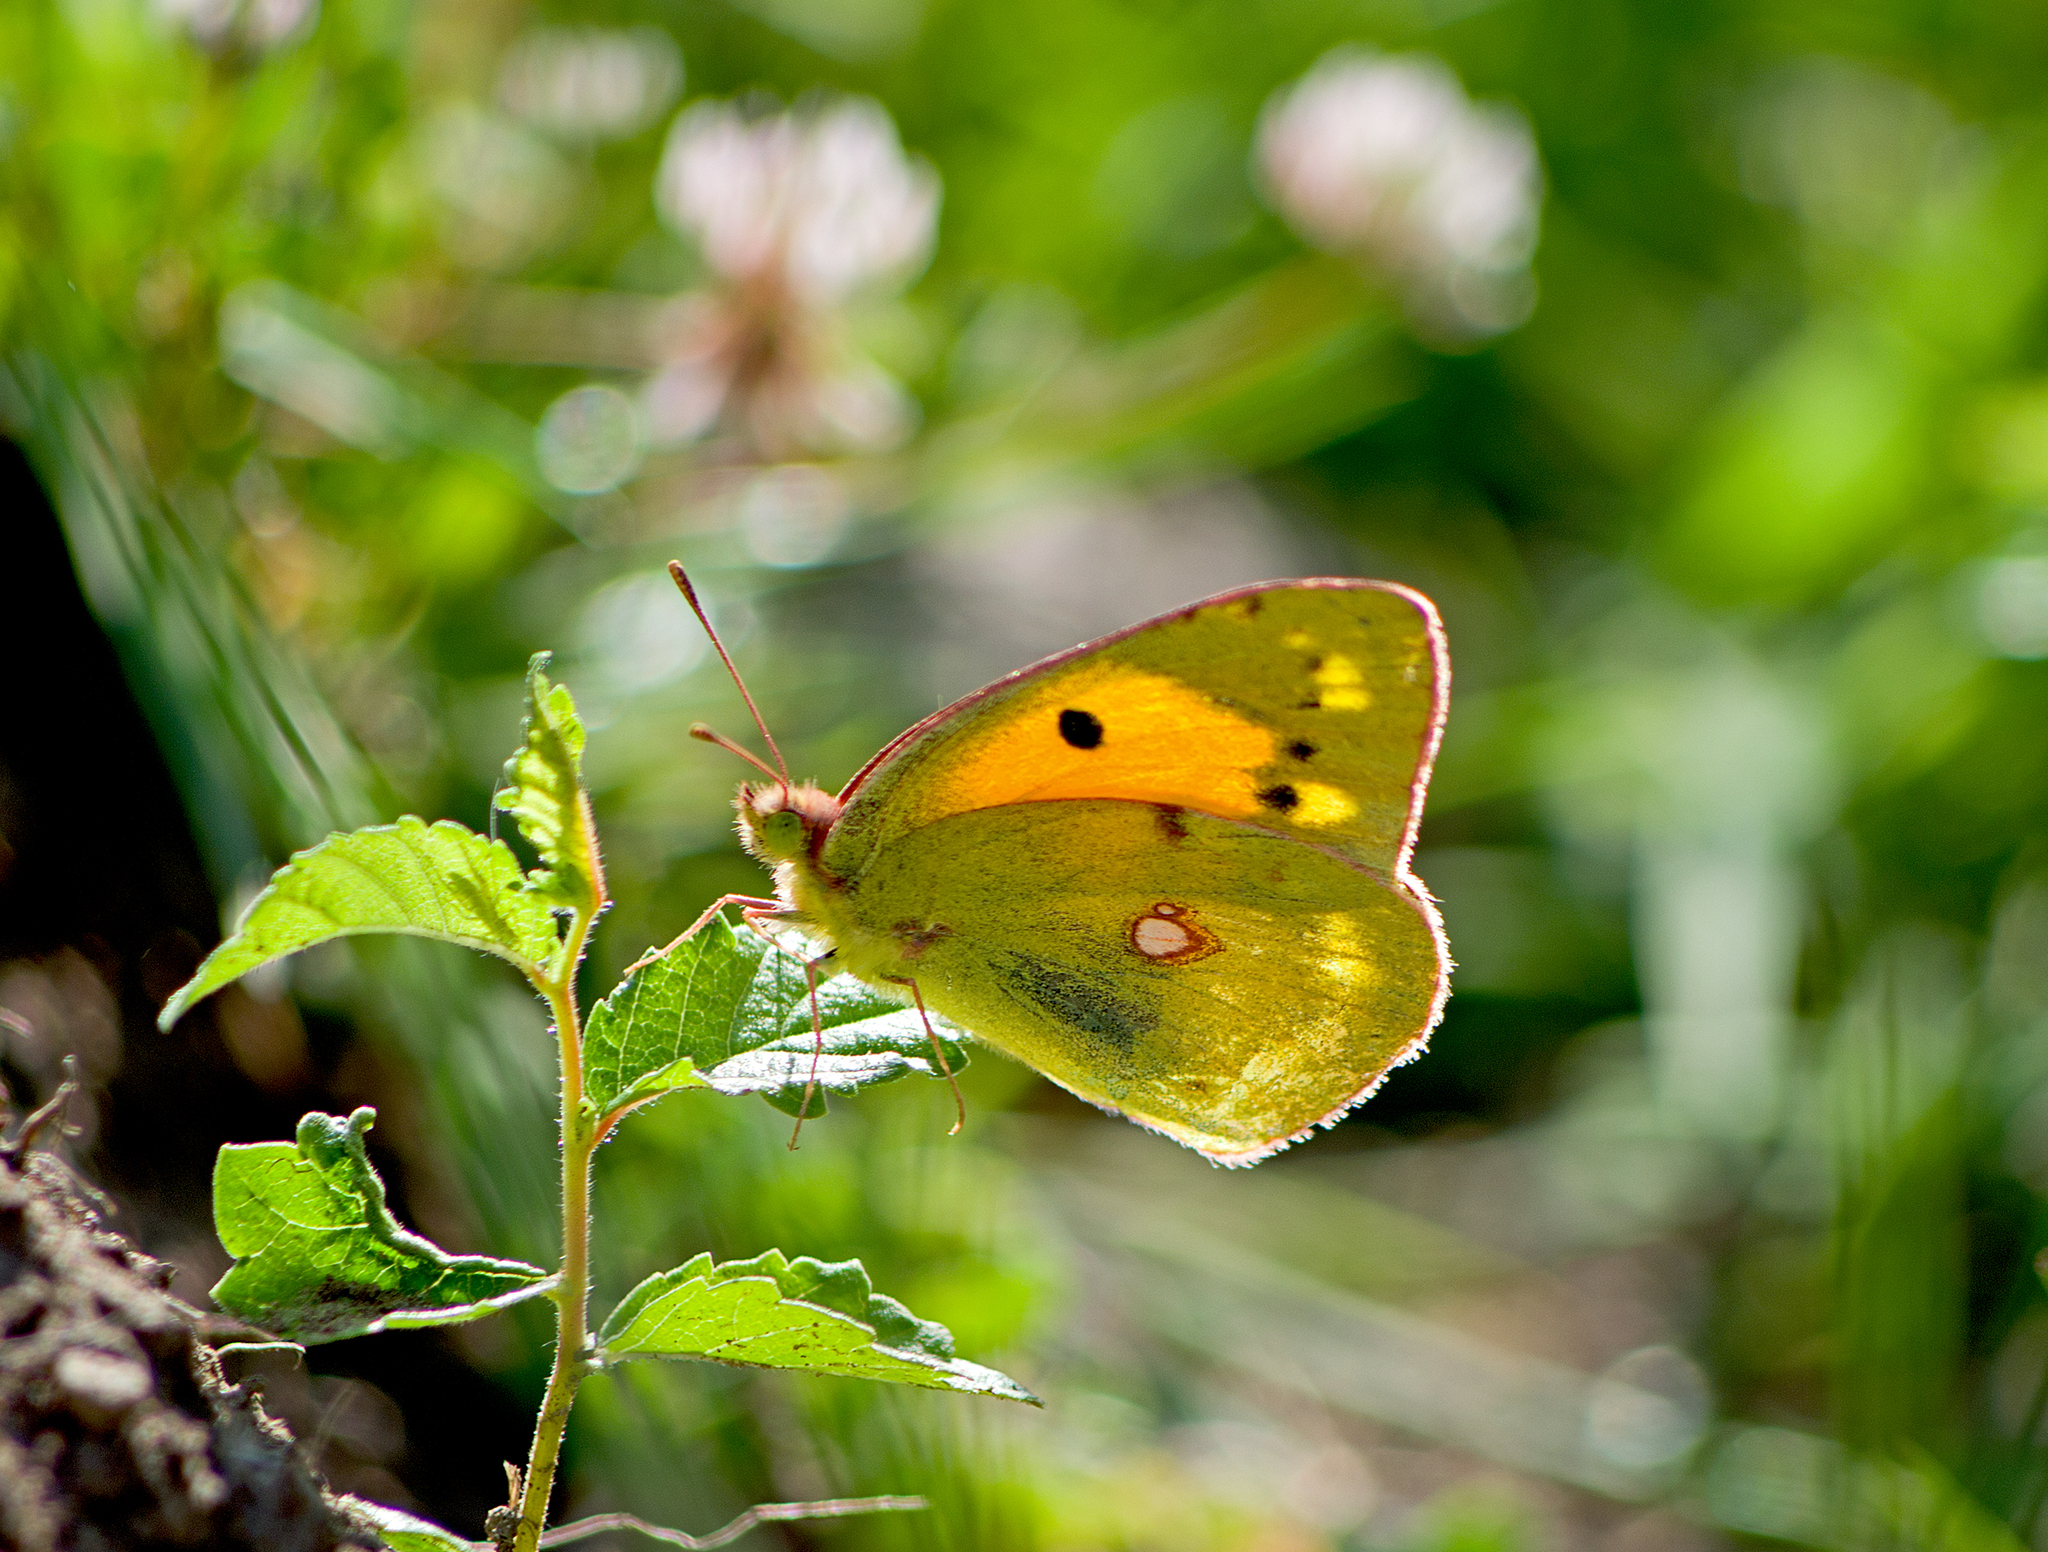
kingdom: Animalia
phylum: Arthropoda
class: Insecta
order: Lepidoptera
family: Pieridae
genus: Colias
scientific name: Colias croceus
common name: Clouded yellow
